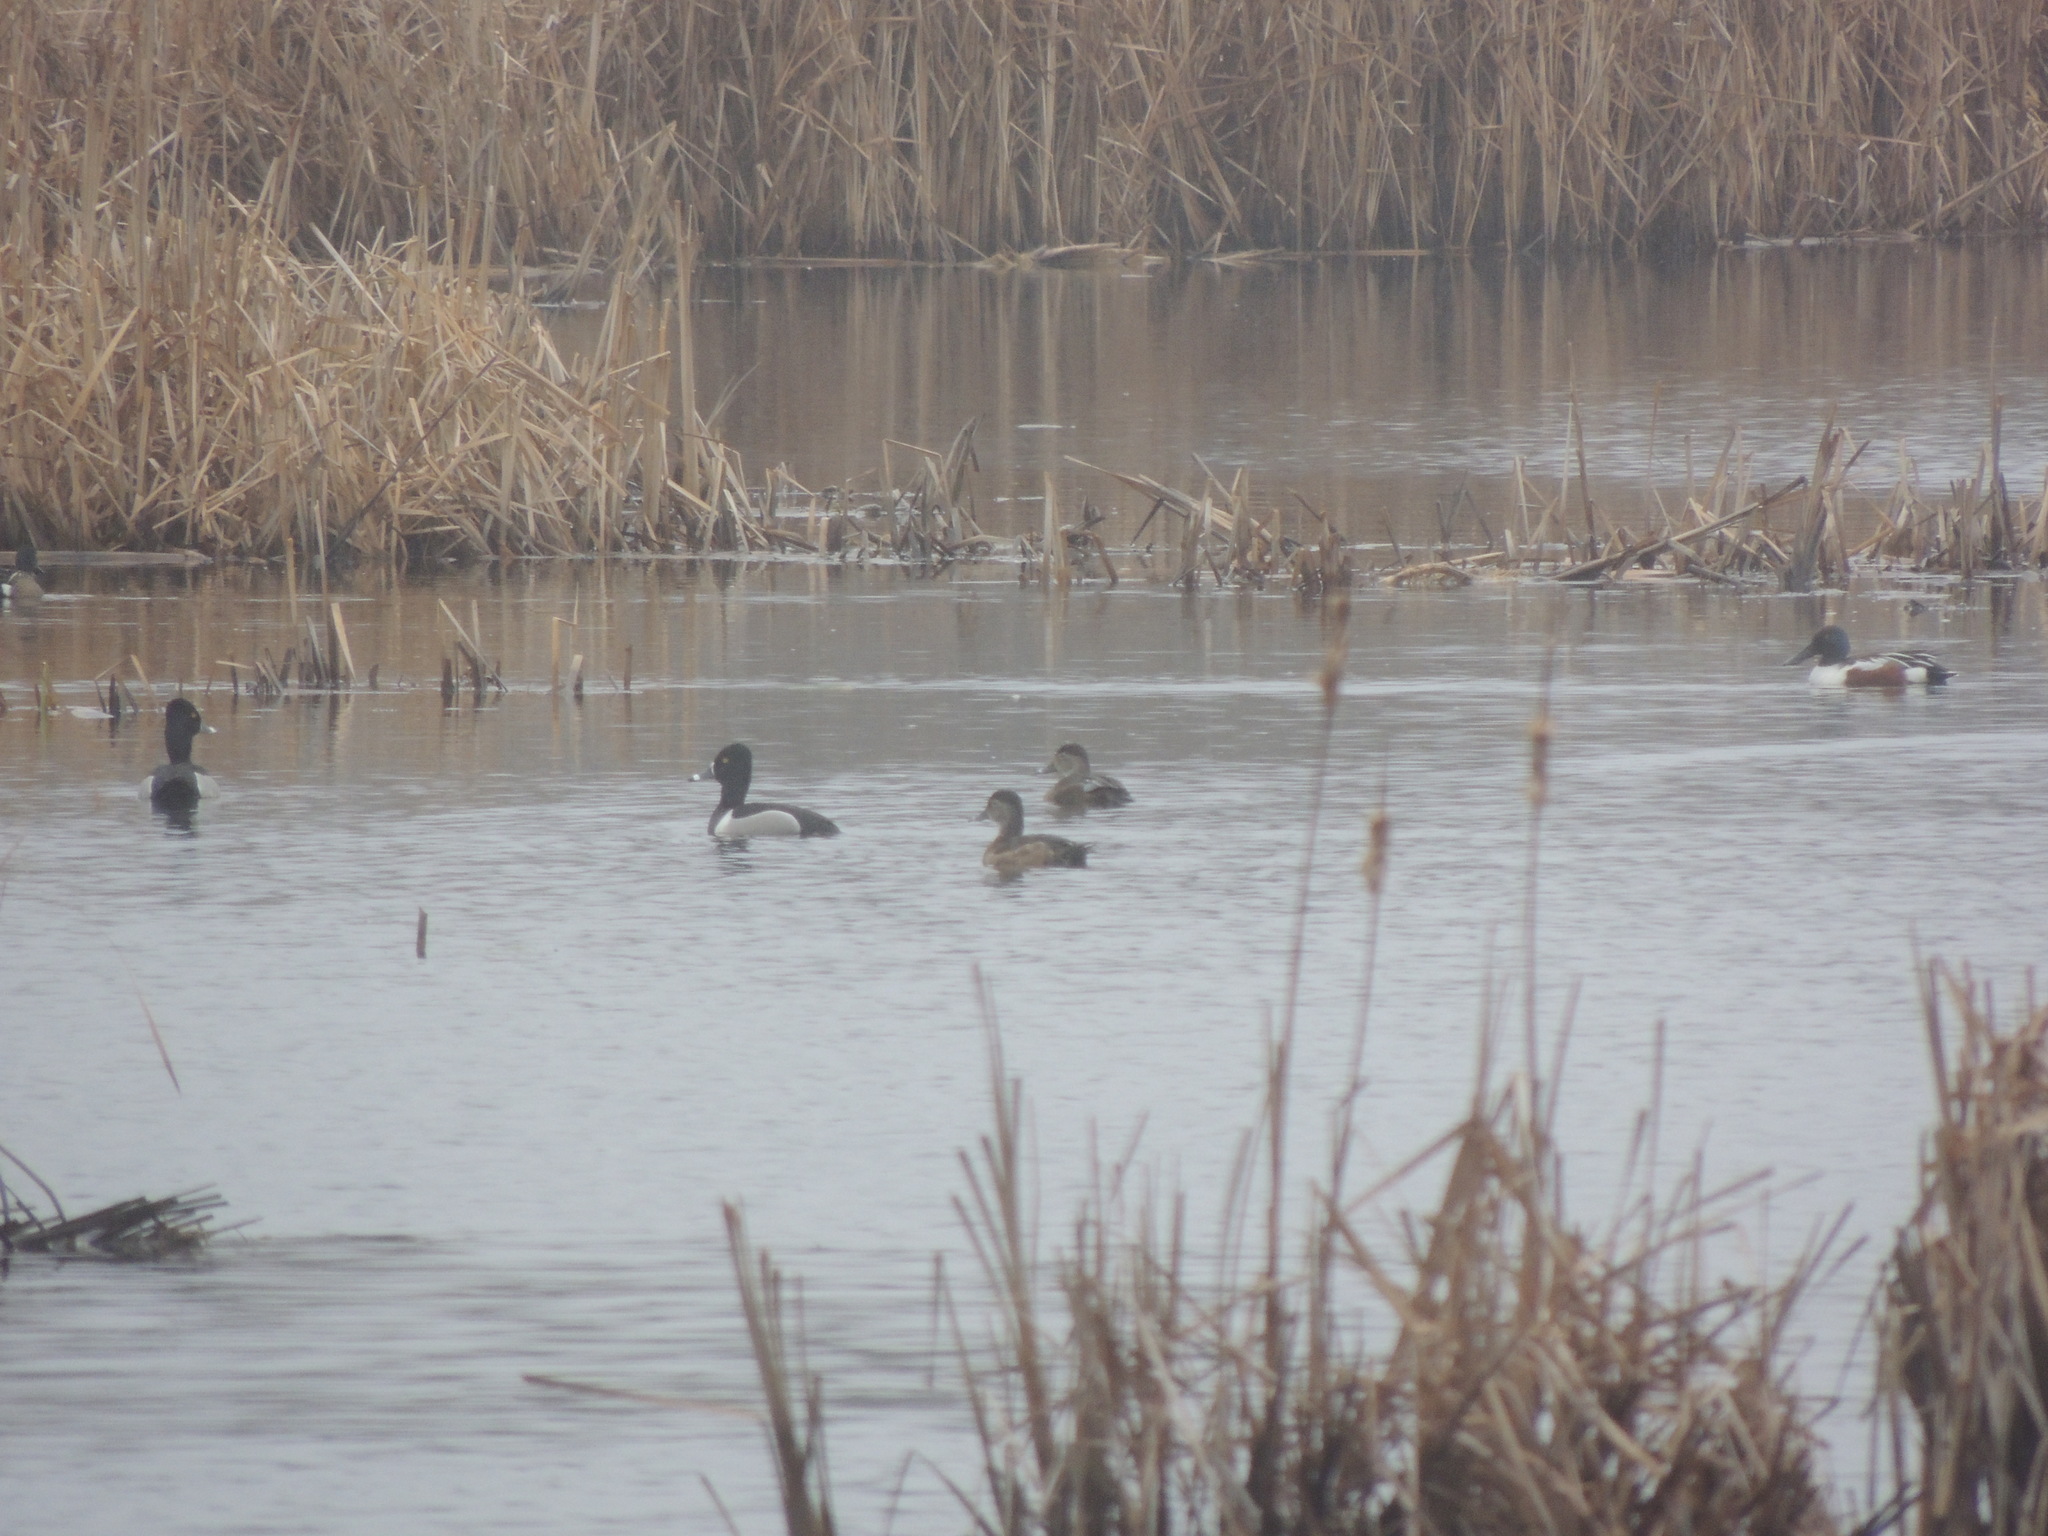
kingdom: Animalia
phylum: Chordata
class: Aves
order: Anseriformes
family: Anatidae
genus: Aythya
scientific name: Aythya collaris
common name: Ring-necked duck
